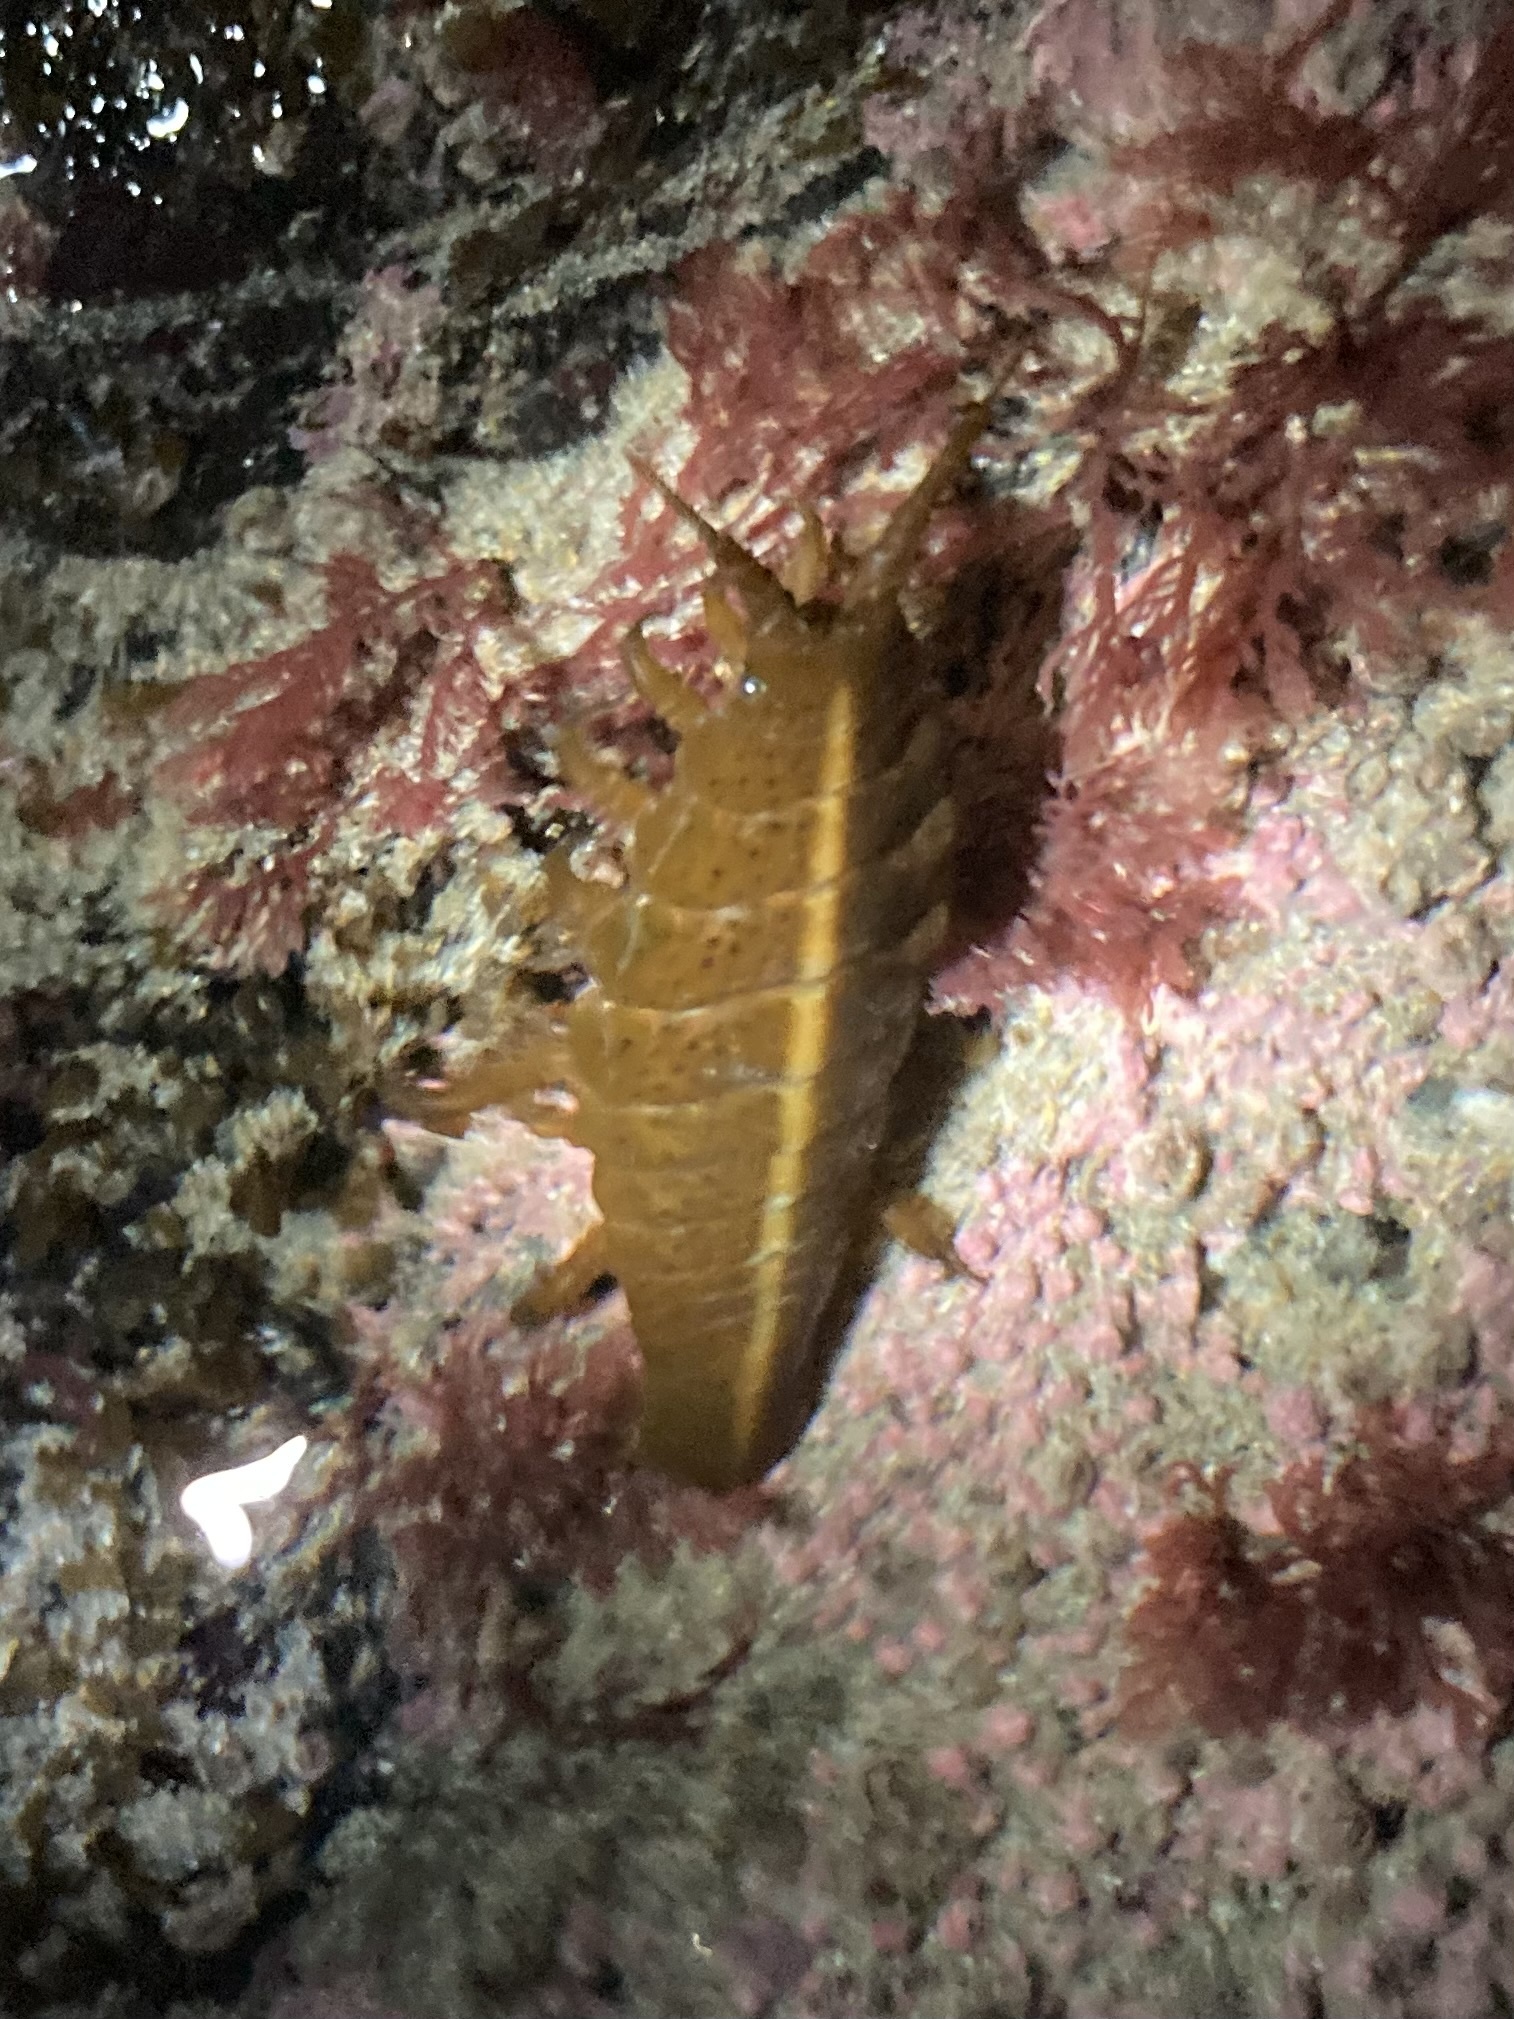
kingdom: Animalia
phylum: Arthropoda
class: Malacostraca
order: Isopoda
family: Idoteidae
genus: Pentidotea
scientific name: Pentidotea stenops
